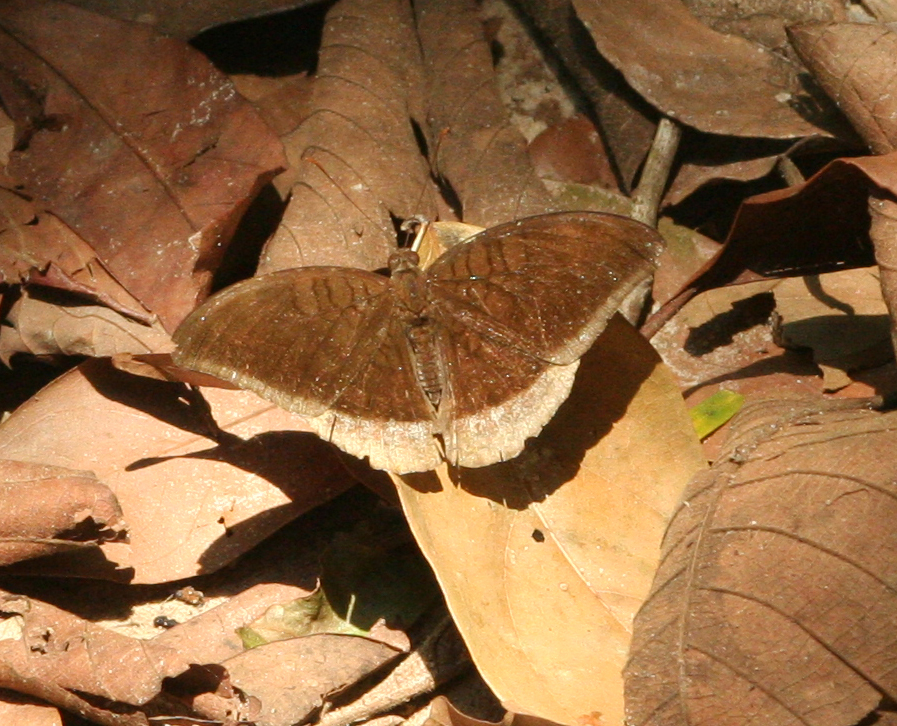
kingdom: Animalia
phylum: Arthropoda
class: Insecta
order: Lepidoptera
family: Nymphalidae
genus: Tanaecia
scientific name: Tanaecia lepidea
